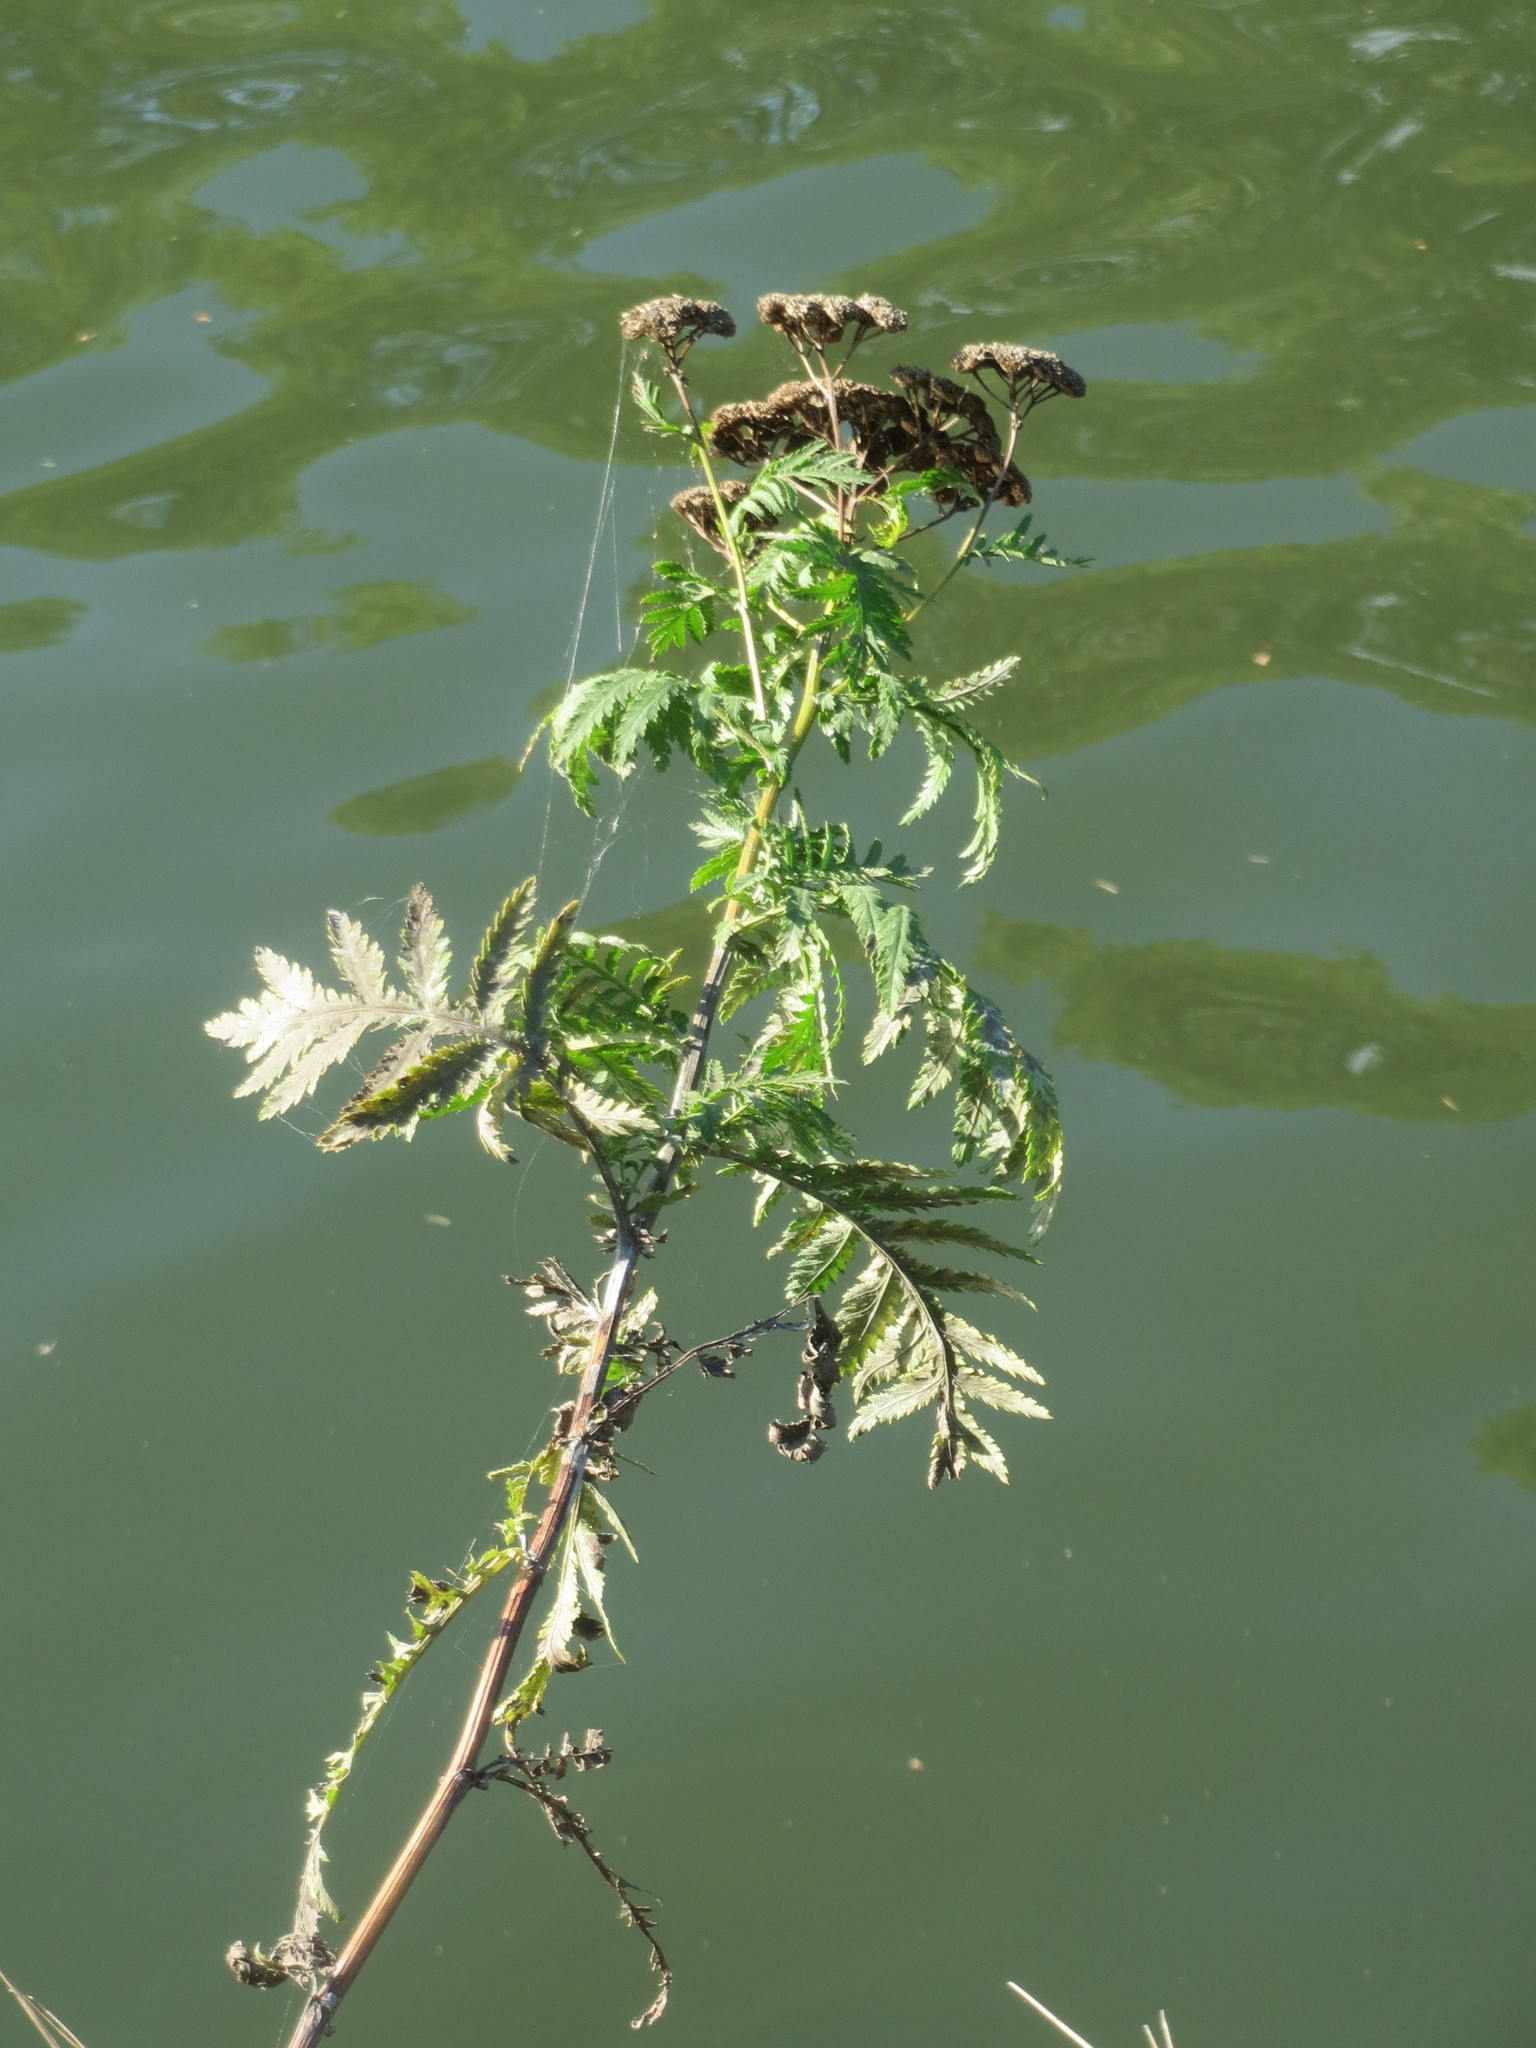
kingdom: Plantae
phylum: Tracheophyta
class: Magnoliopsida
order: Asterales
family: Asteraceae
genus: Tanacetum
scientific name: Tanacetum vulgare
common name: Common tansy
